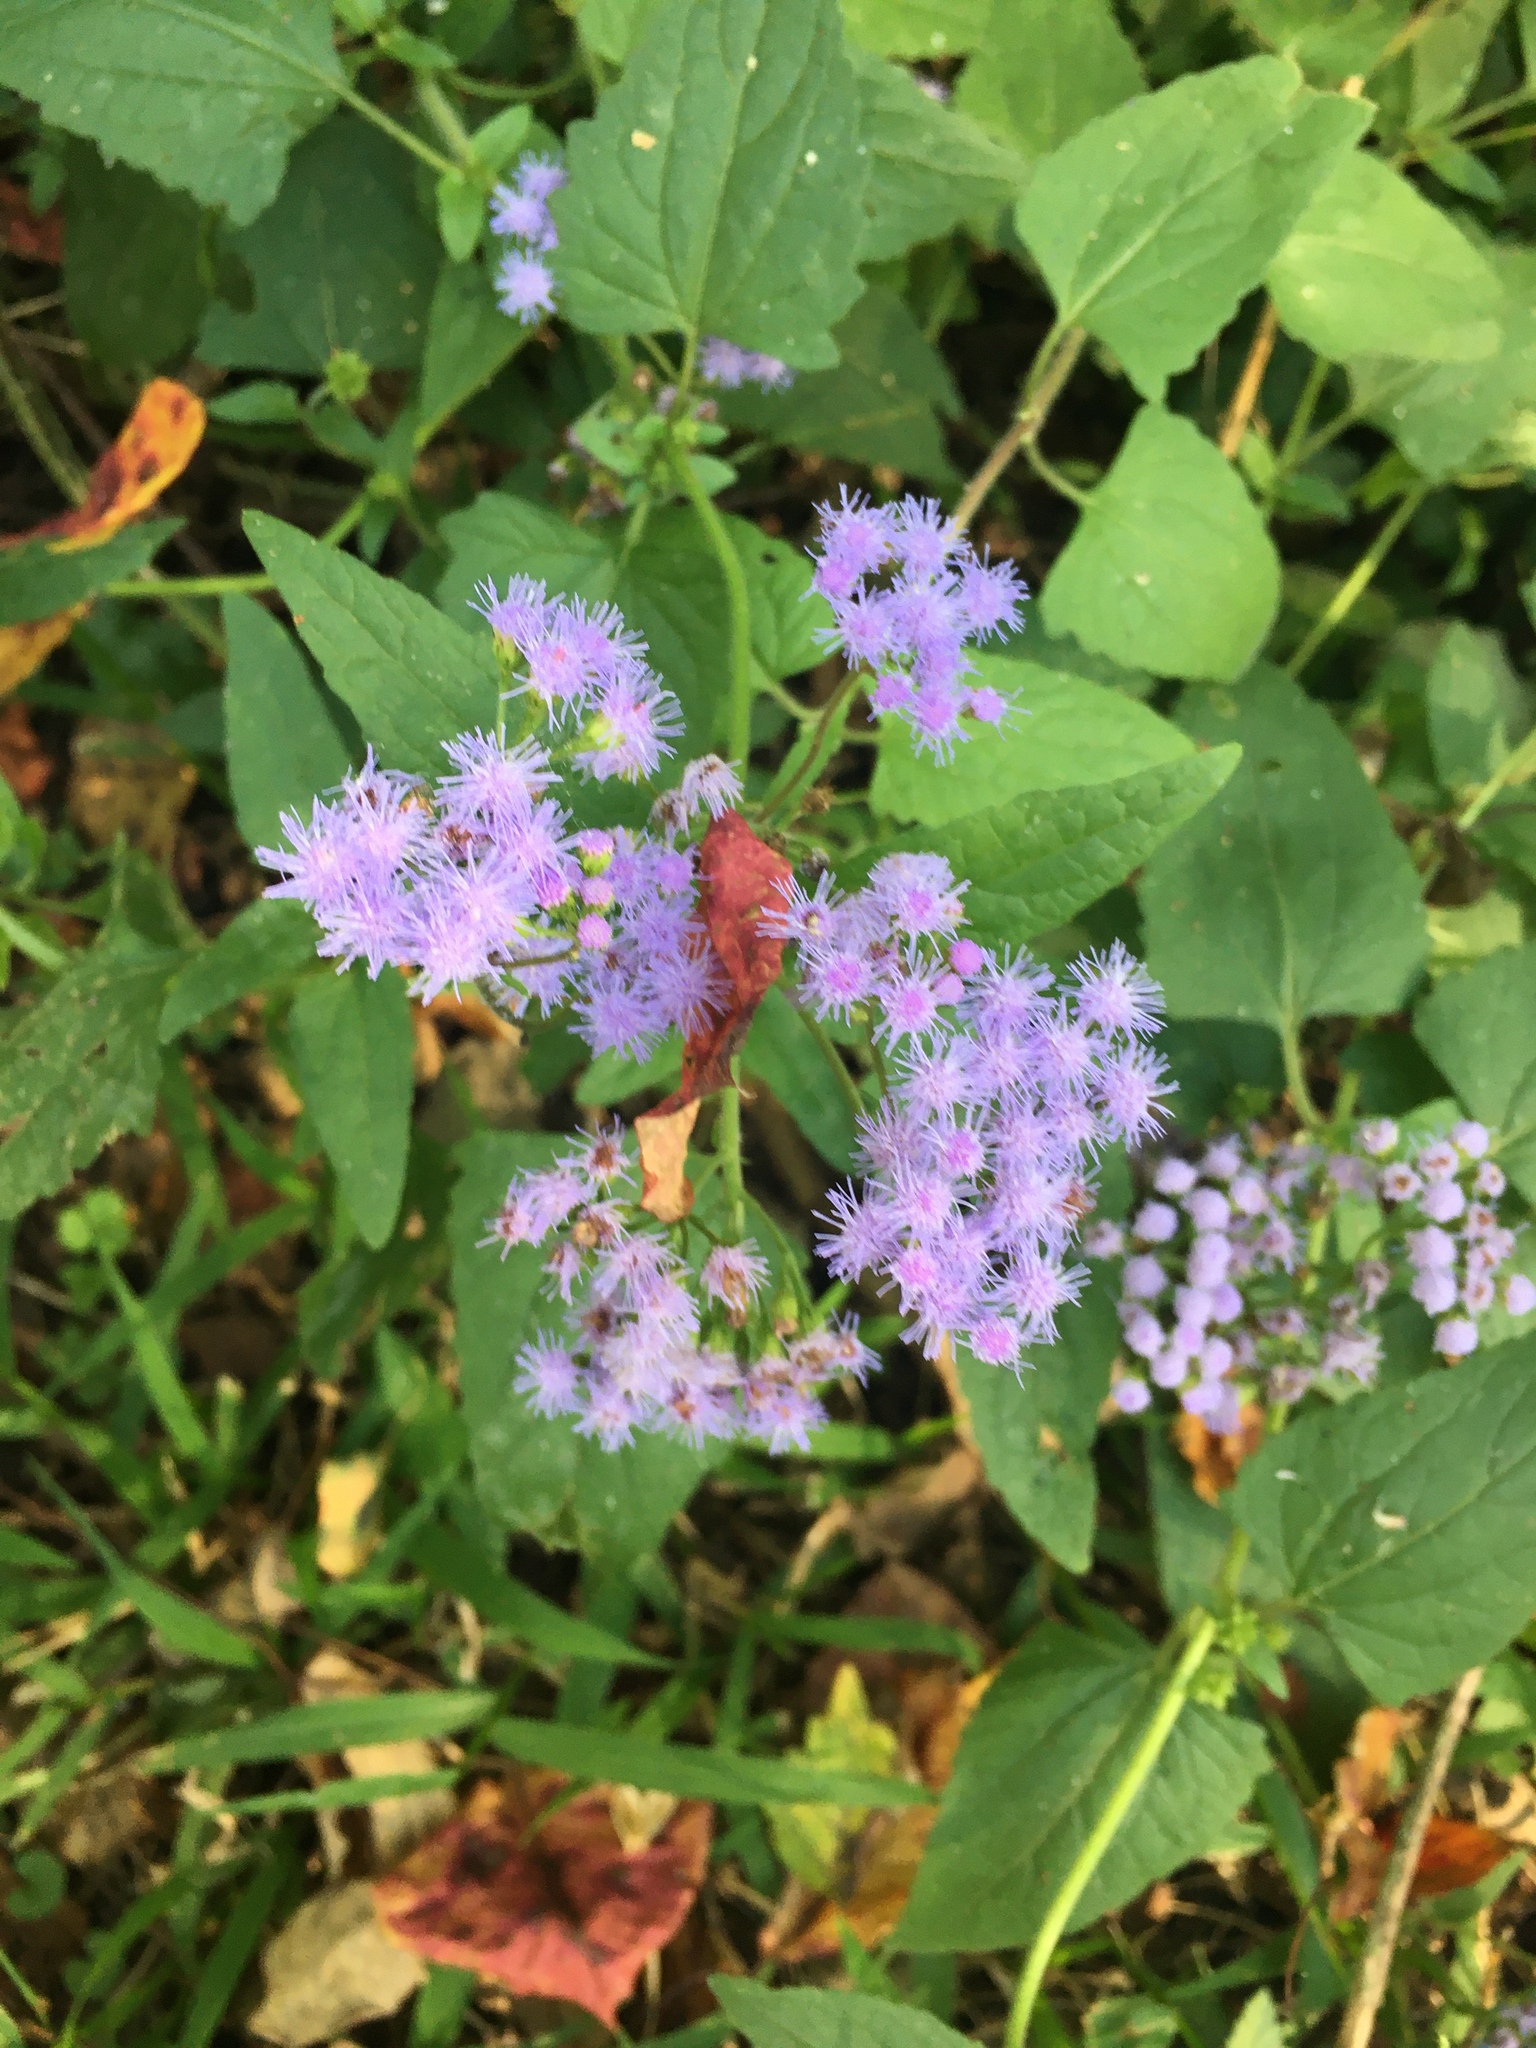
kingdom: Plantae
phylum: Tracheophyta
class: Magnoliopsida
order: Asterales
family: Asteraceae
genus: Conoclinium
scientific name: Conoclinium coelestinum
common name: Blue mistflower
